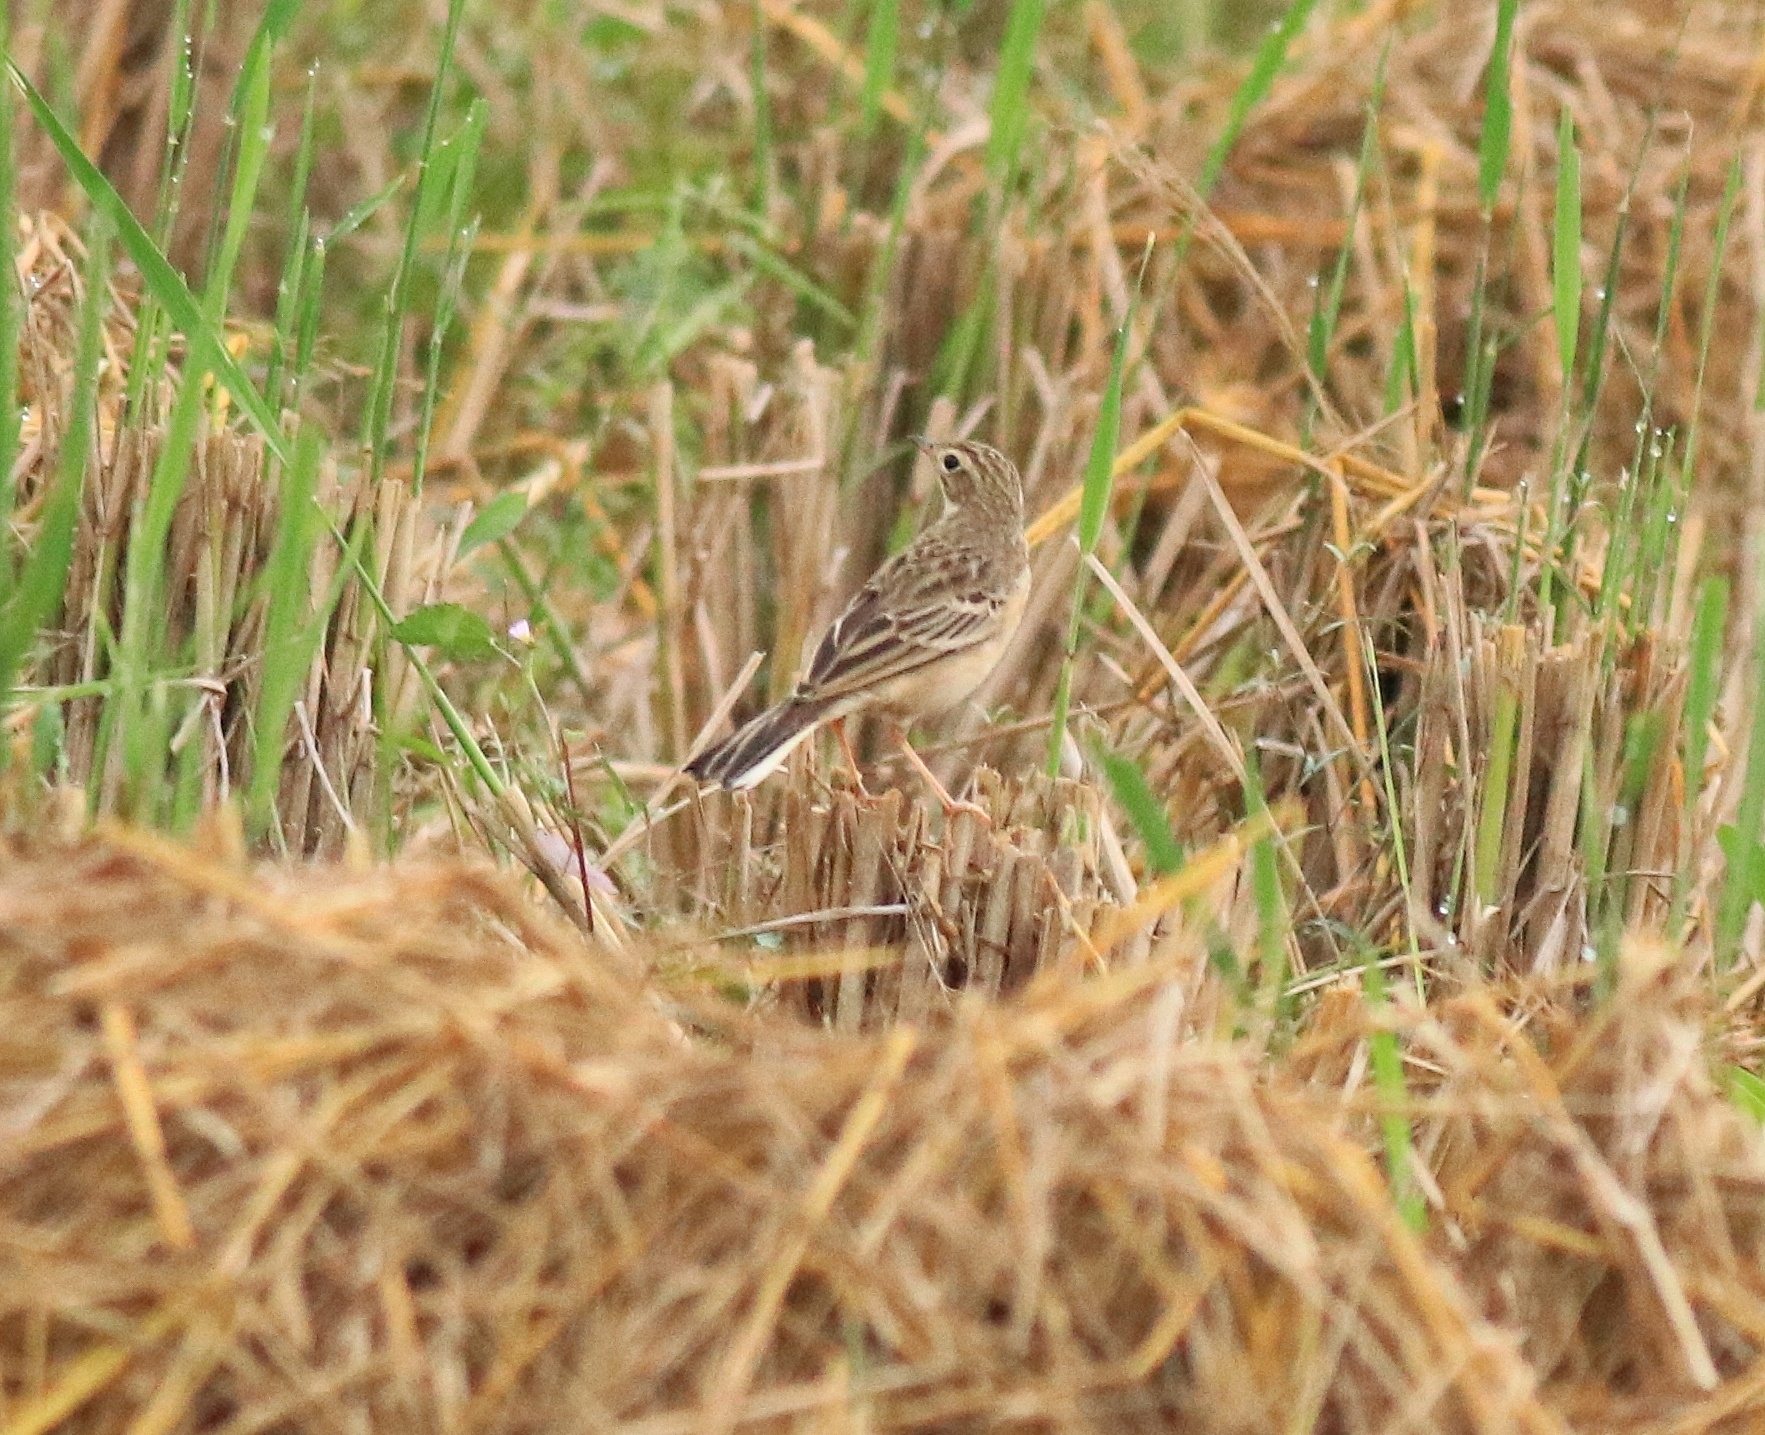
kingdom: Animalia
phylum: Chordata
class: Aves
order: Passeriformes
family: Motacillidae
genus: Anthus
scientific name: Anthus godlewskii
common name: Blyth's pipit
